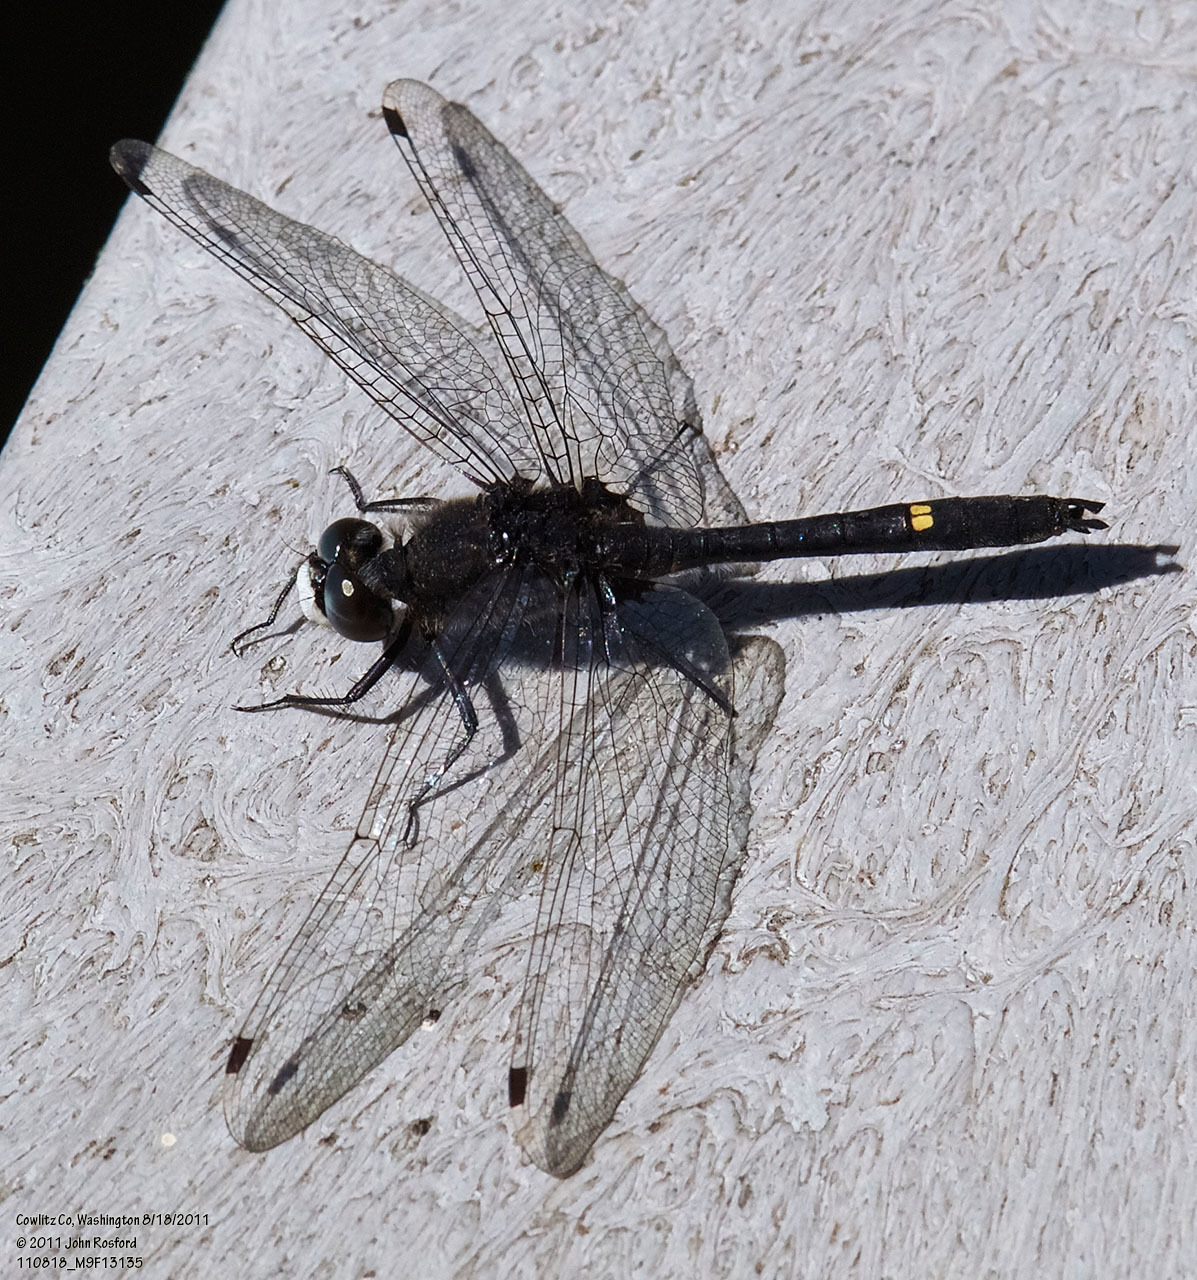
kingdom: Animalia
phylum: Arthropoda
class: Insecta
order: Odonata
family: Libellulidae
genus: Leucorrhinia
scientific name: Leucorrhinia intacta
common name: Dot-tailed whiteface
